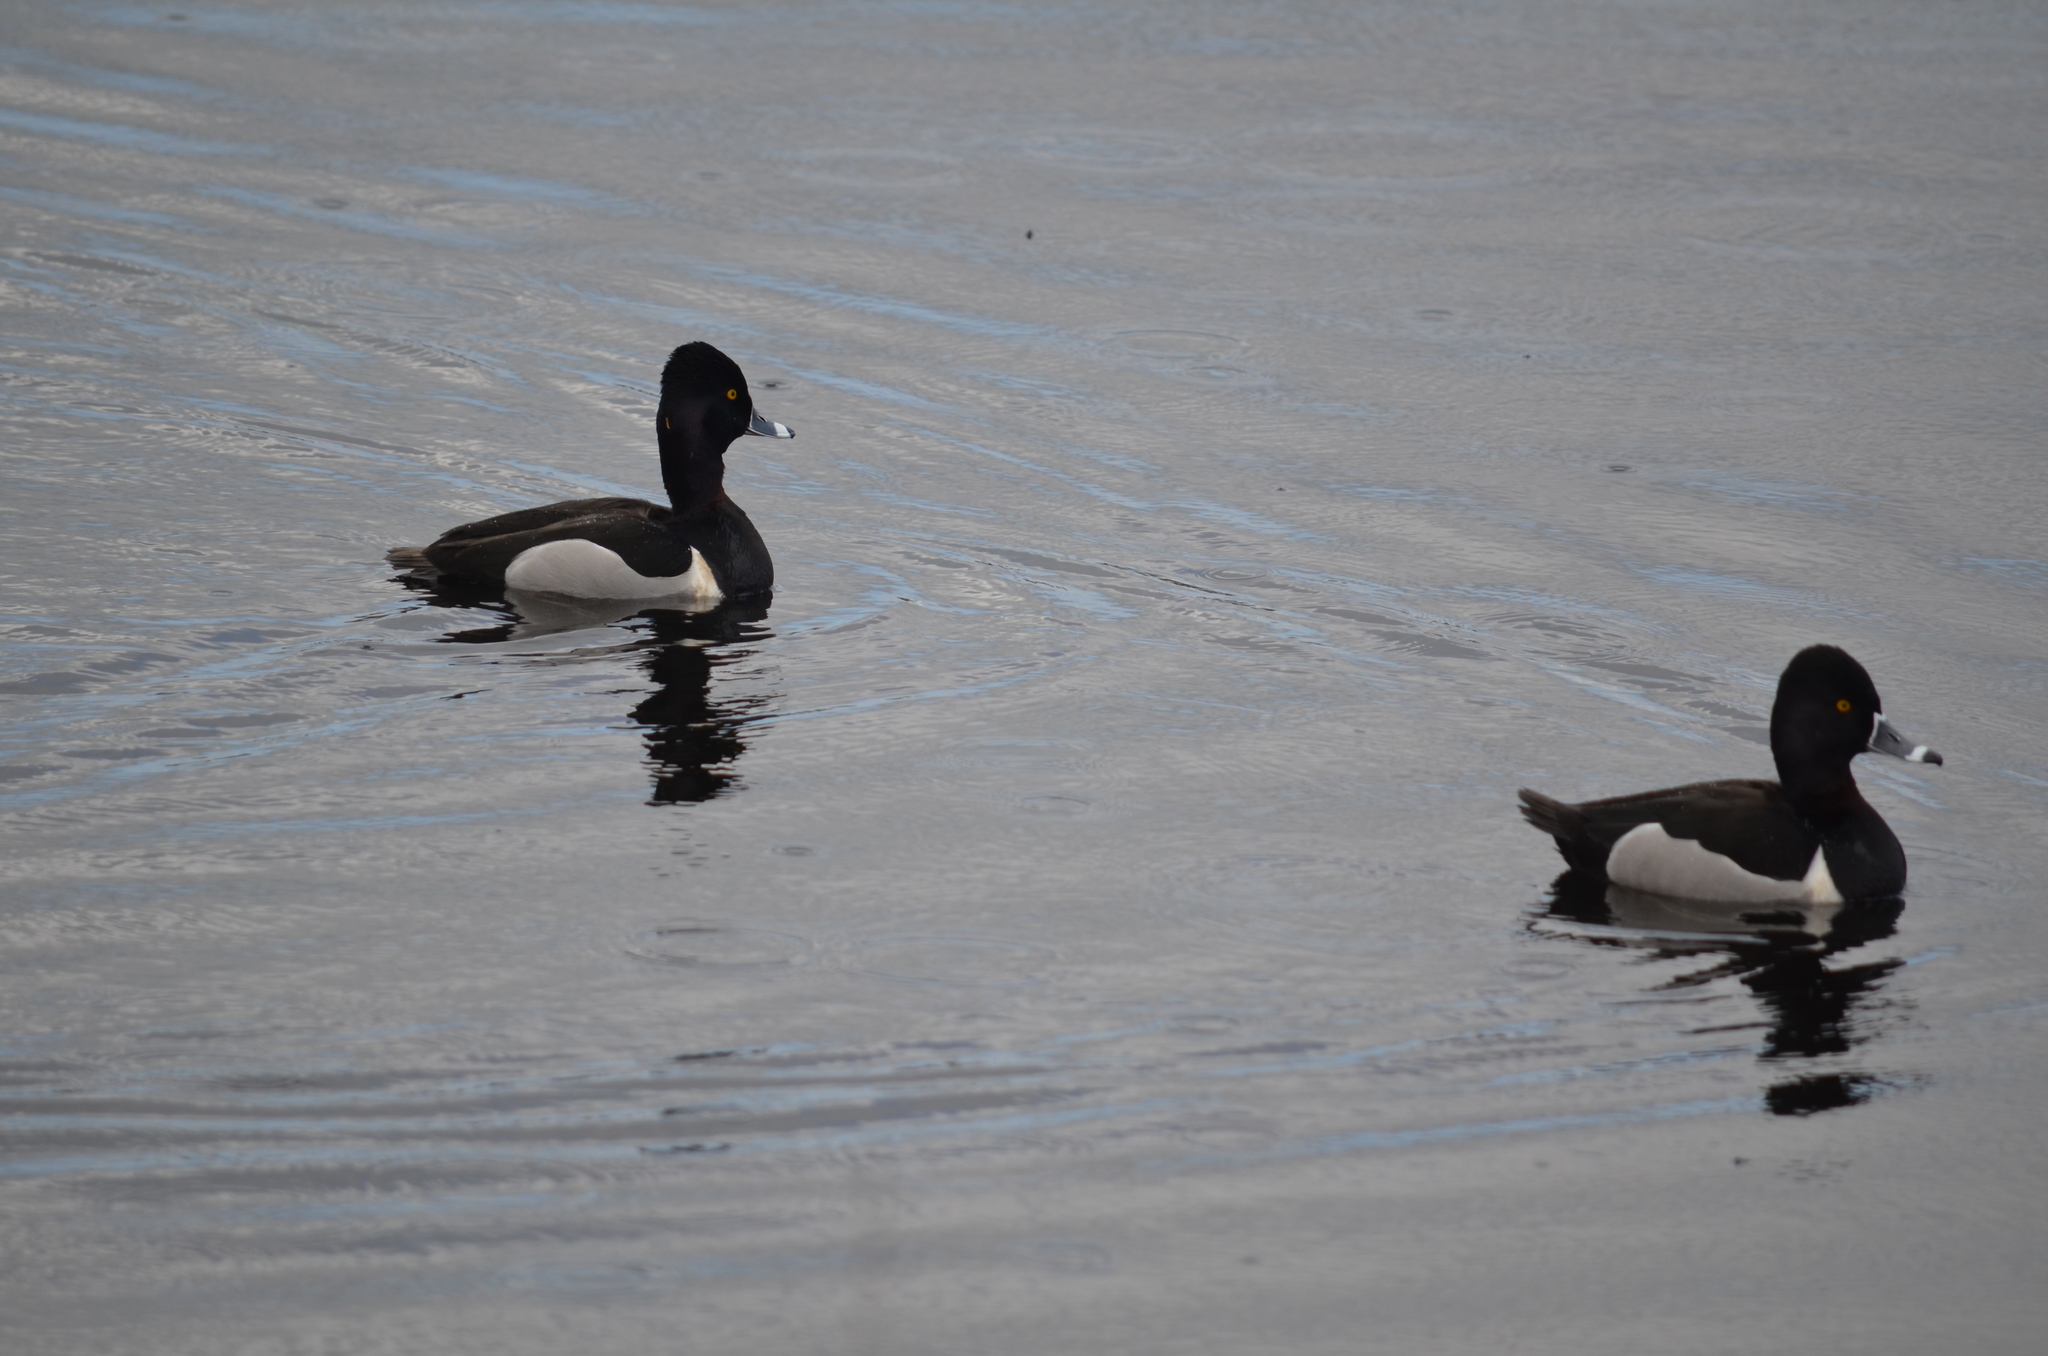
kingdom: Animalia
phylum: Chordata
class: Aves
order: Anseriformes
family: Anatidae
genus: Aythya
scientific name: Aythya collaris
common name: Ring-necked duck
